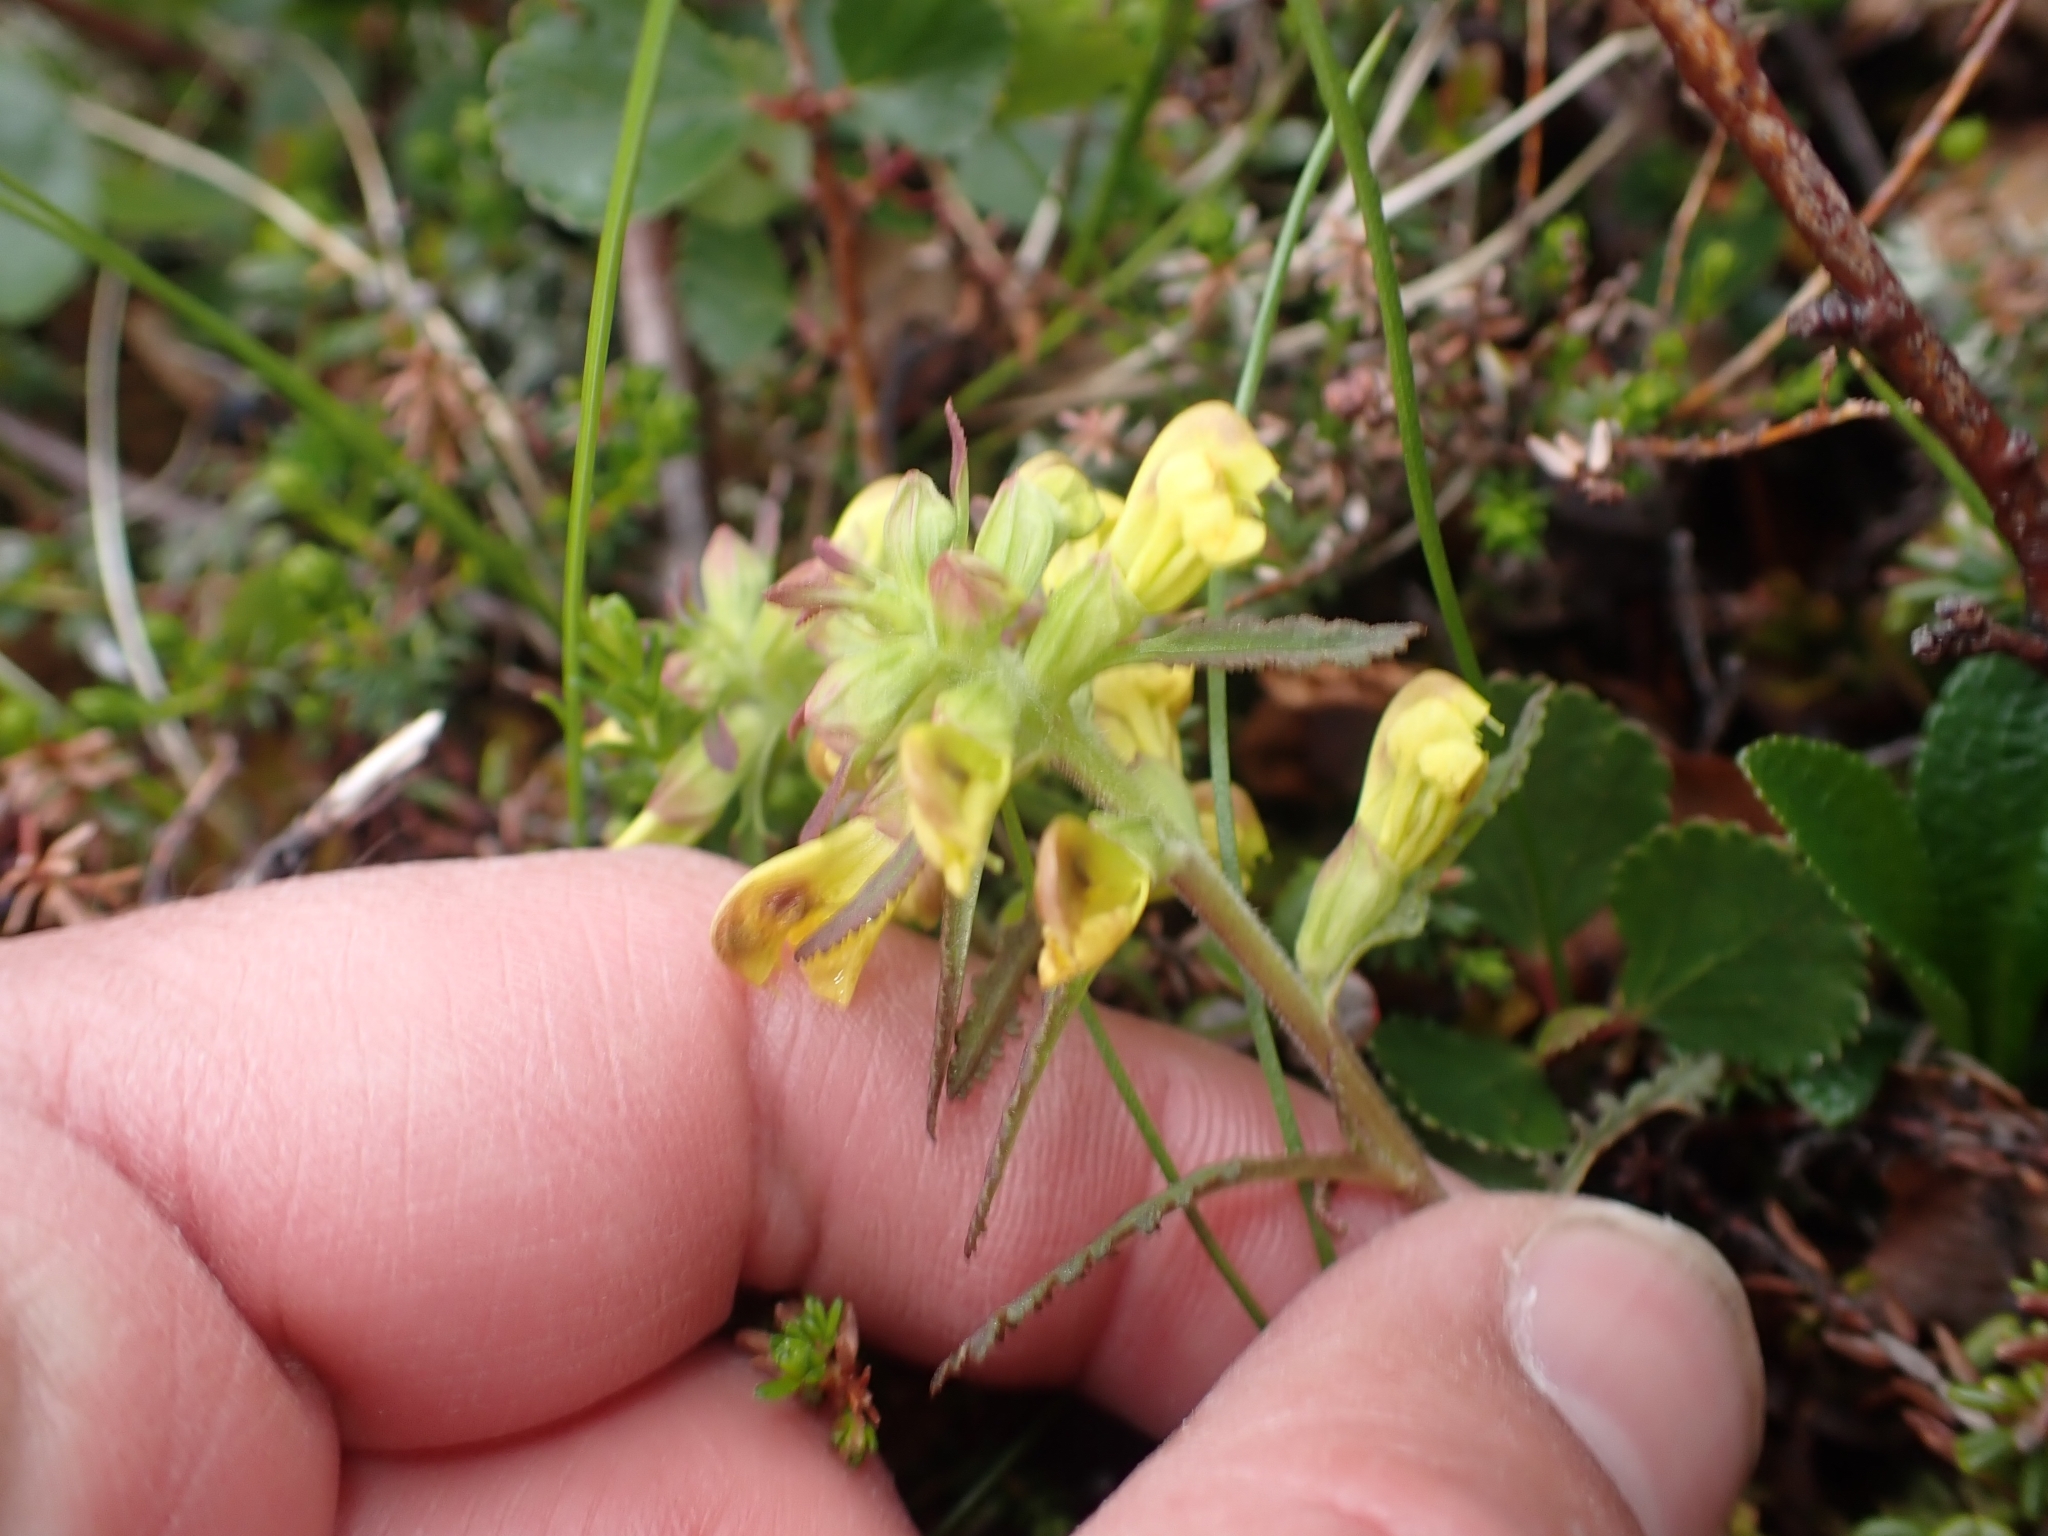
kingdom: Plantae
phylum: Tracheophyta
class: Magnoliopsida
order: Lamiales
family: Orobanchaceae
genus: Pedicularis
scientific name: Pedicularis labradorica
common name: Labrador lousewort
